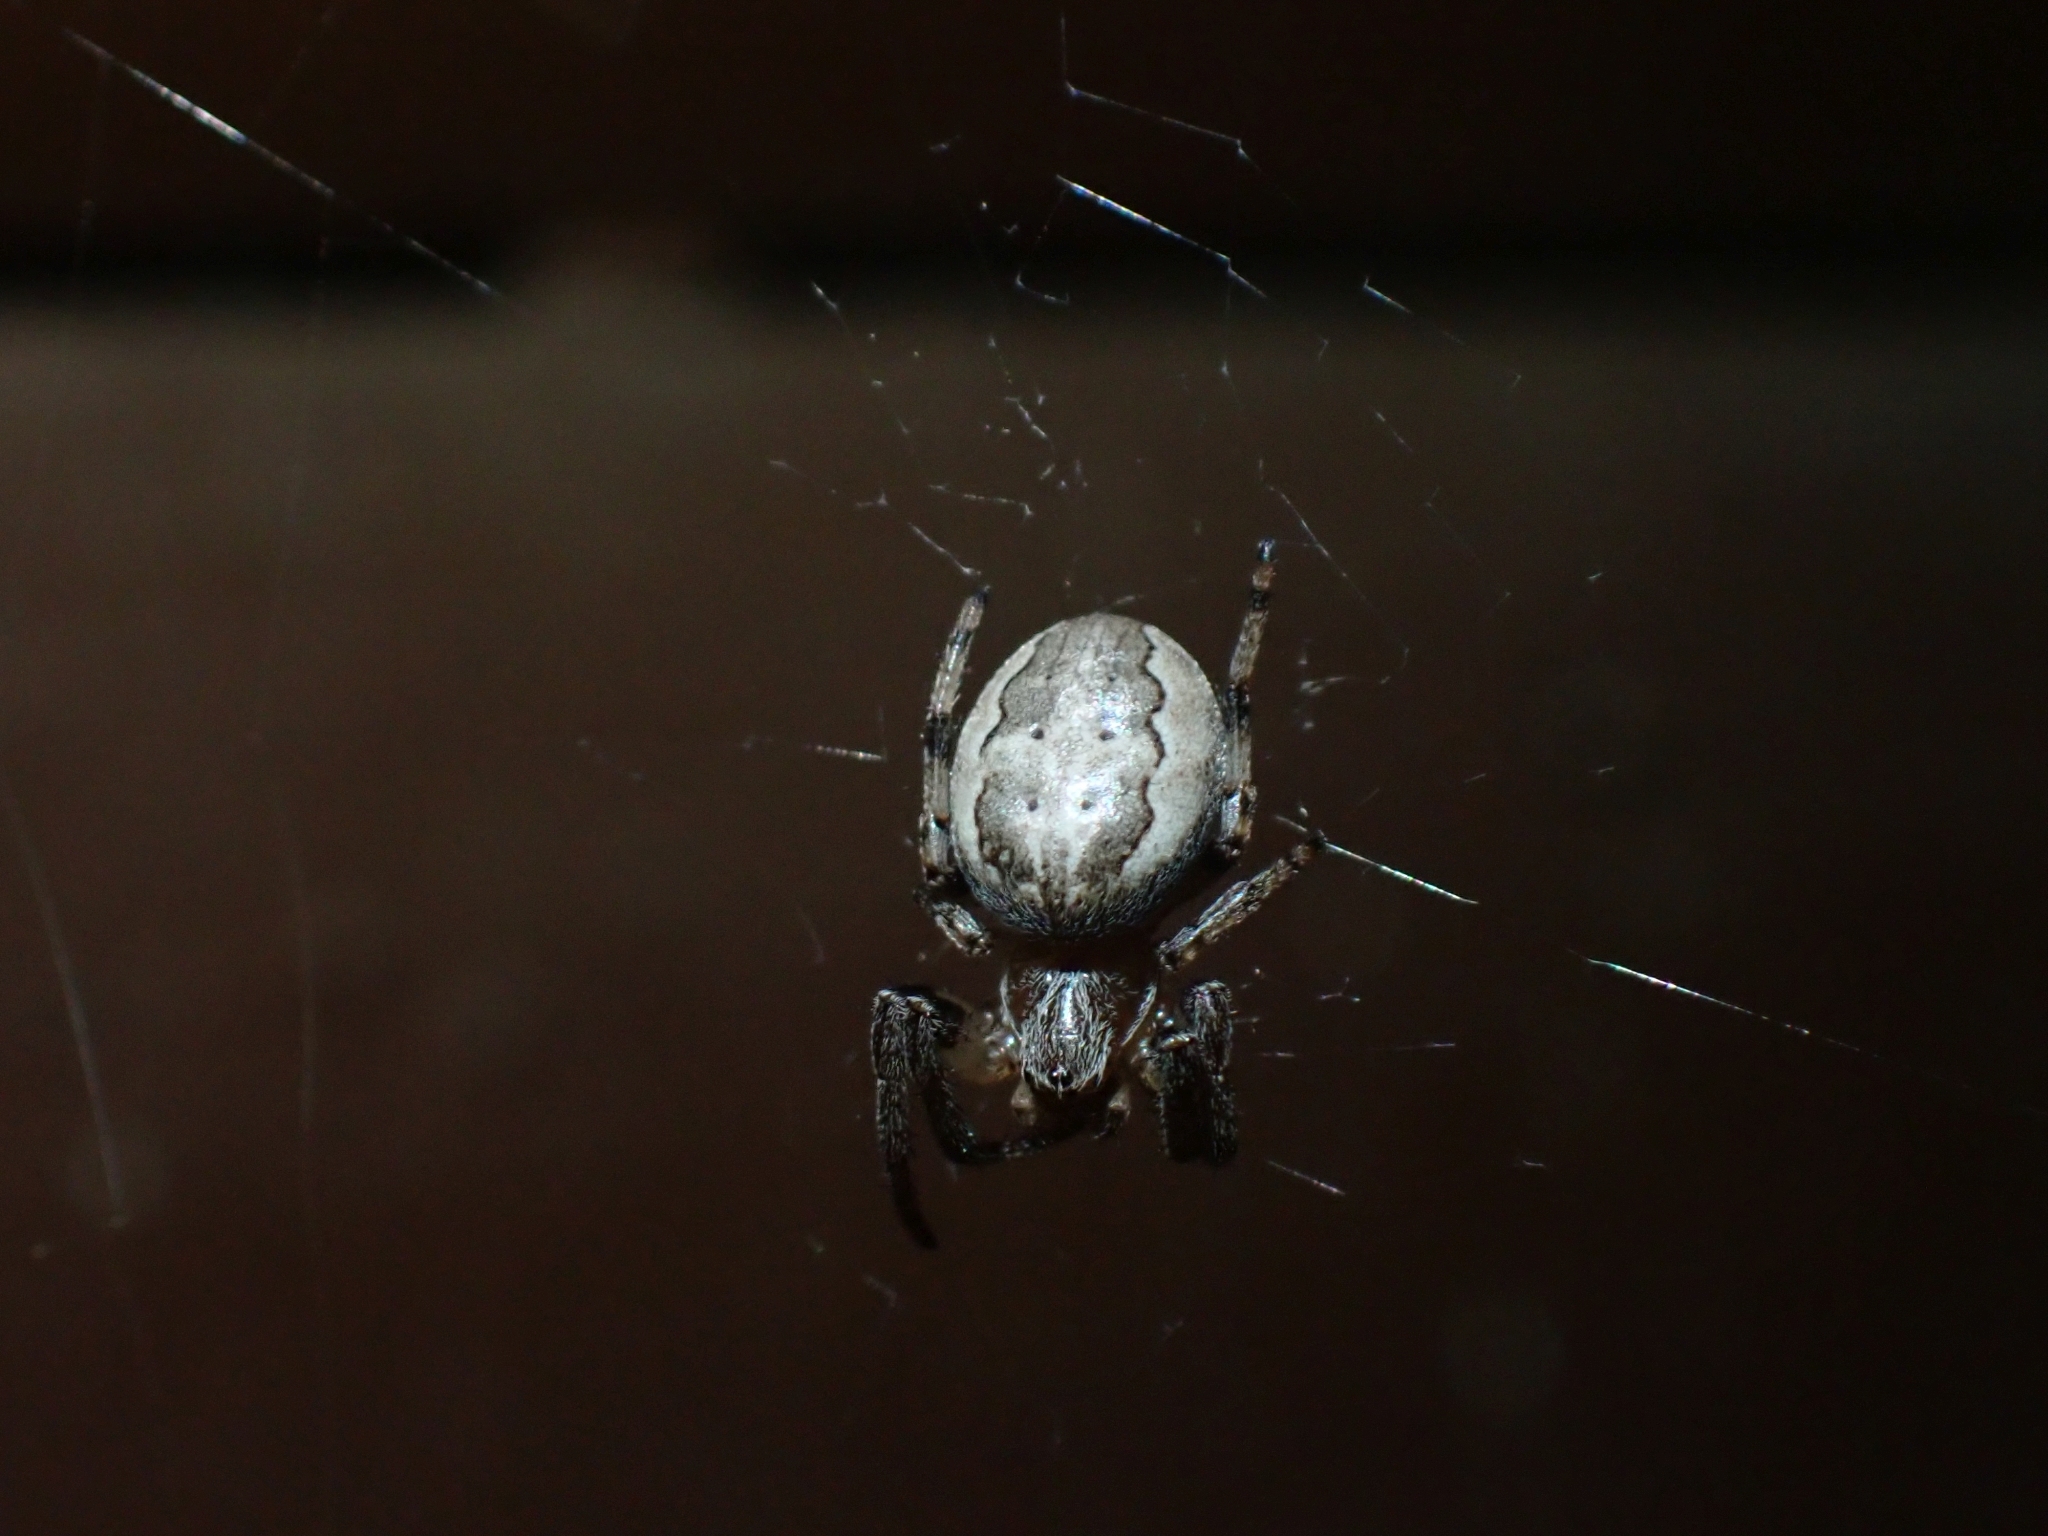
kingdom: Animalia
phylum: Arthropoda
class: Arachnida
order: Araneae
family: Araneidae
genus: Larinioides
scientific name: Larinioides cornutus
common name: Furrow orbweaver
